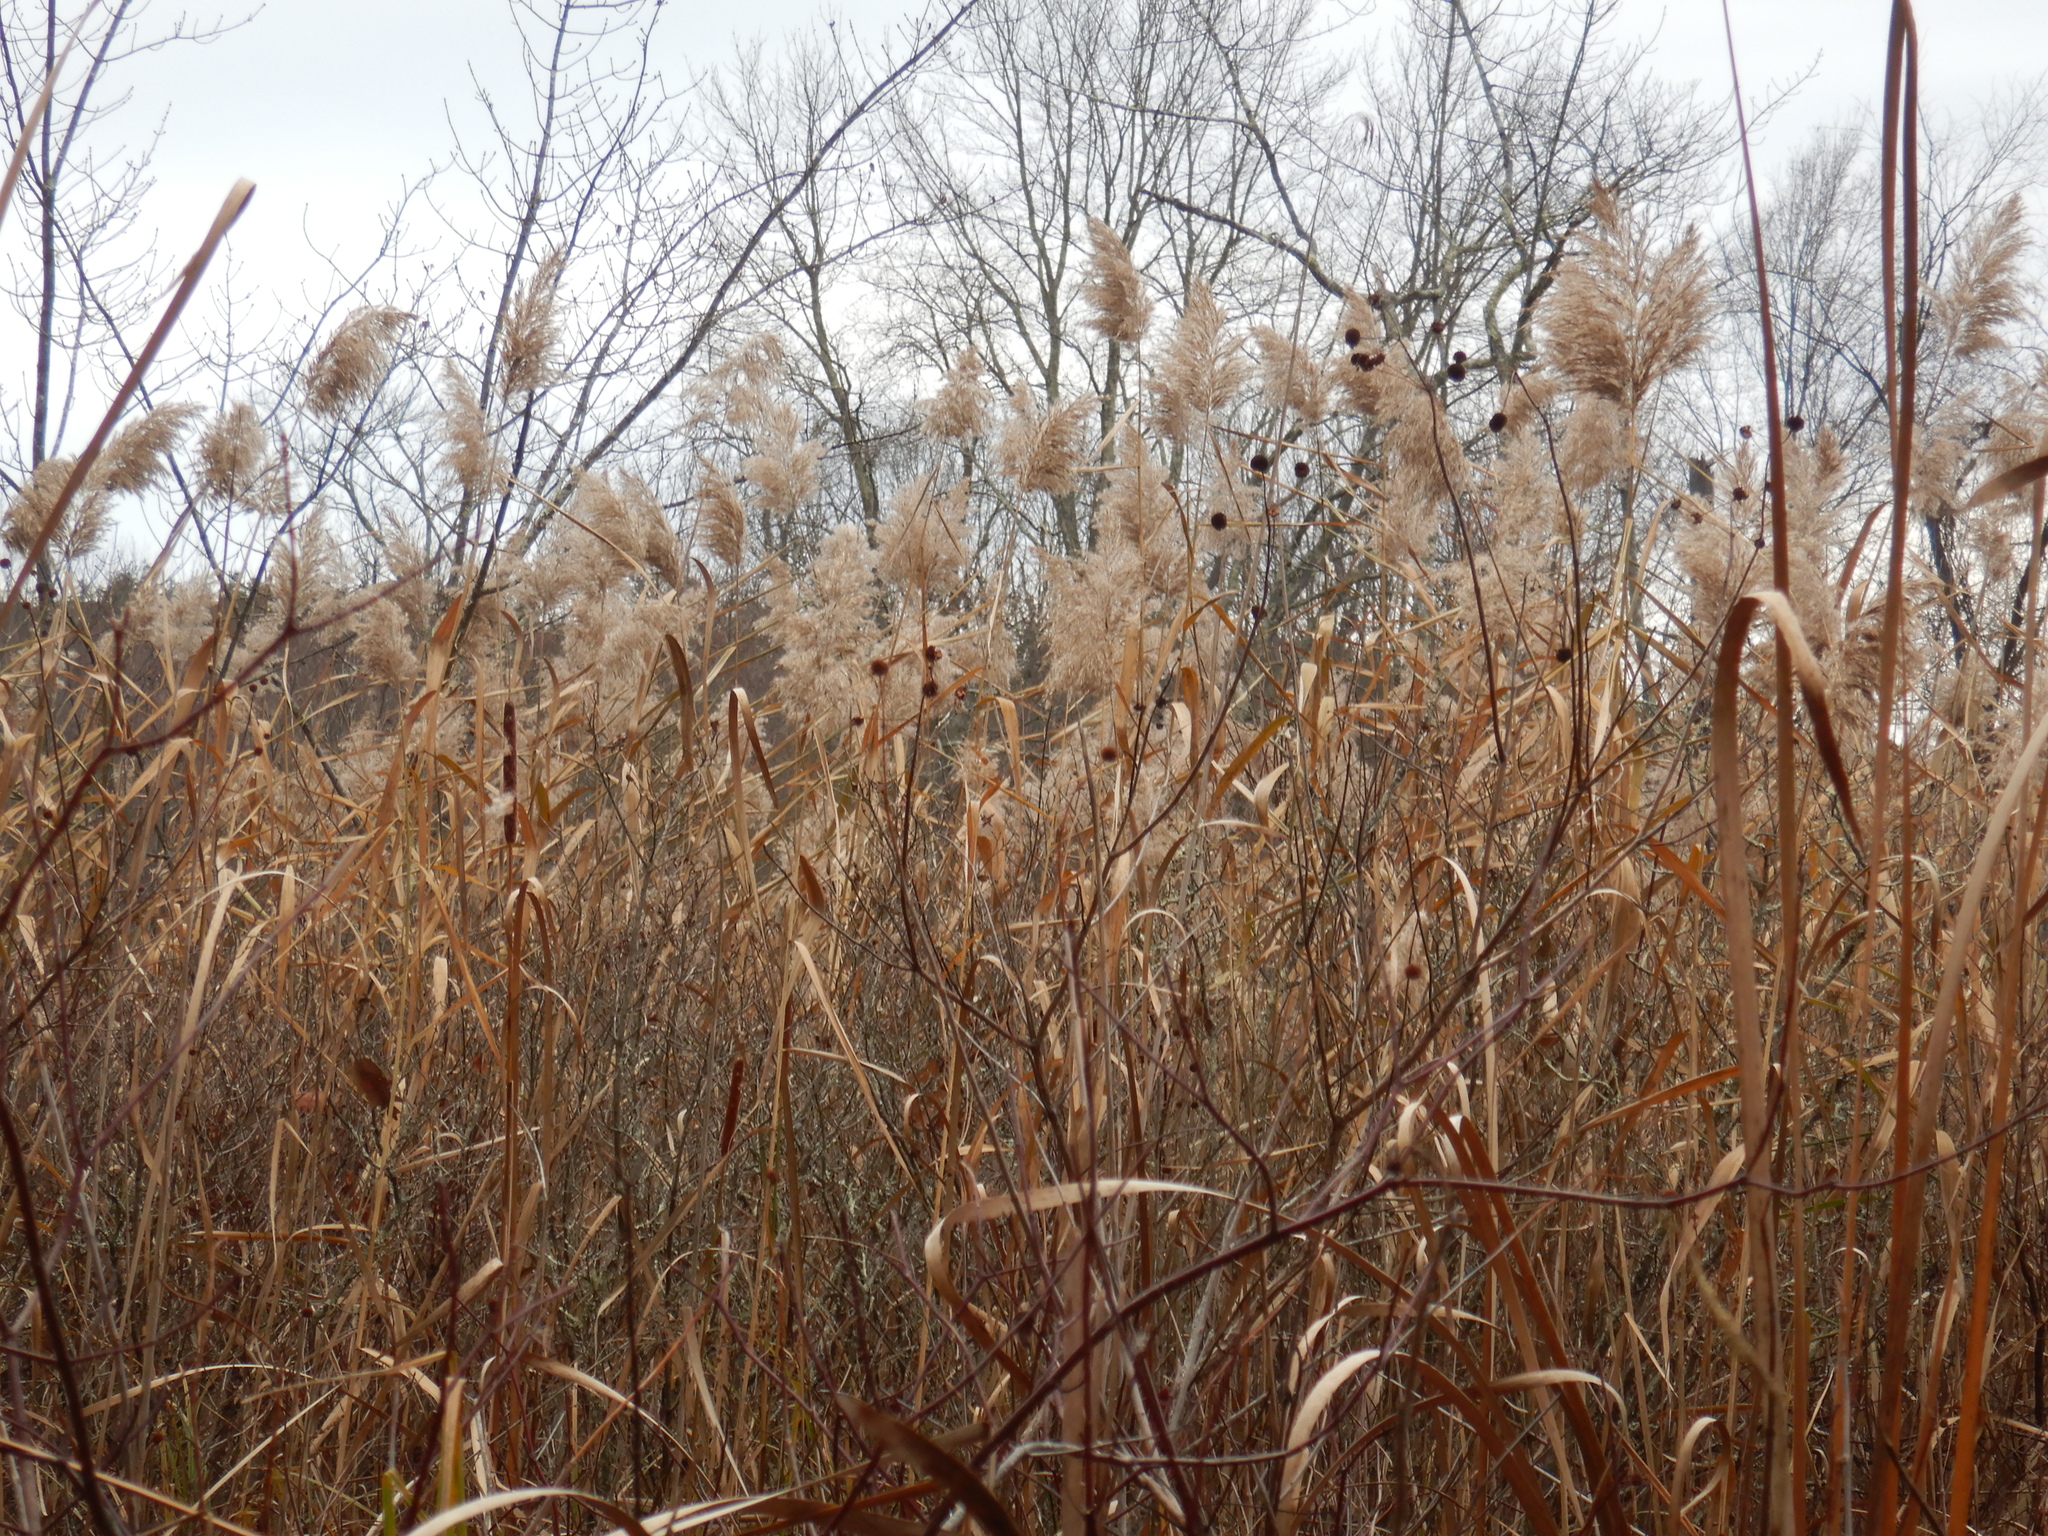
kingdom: Plantae
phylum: Tracheophyta
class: Liliopsida
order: Poales
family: Poaceae
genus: Phragmites
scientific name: Phragmites australis
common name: Common reed
